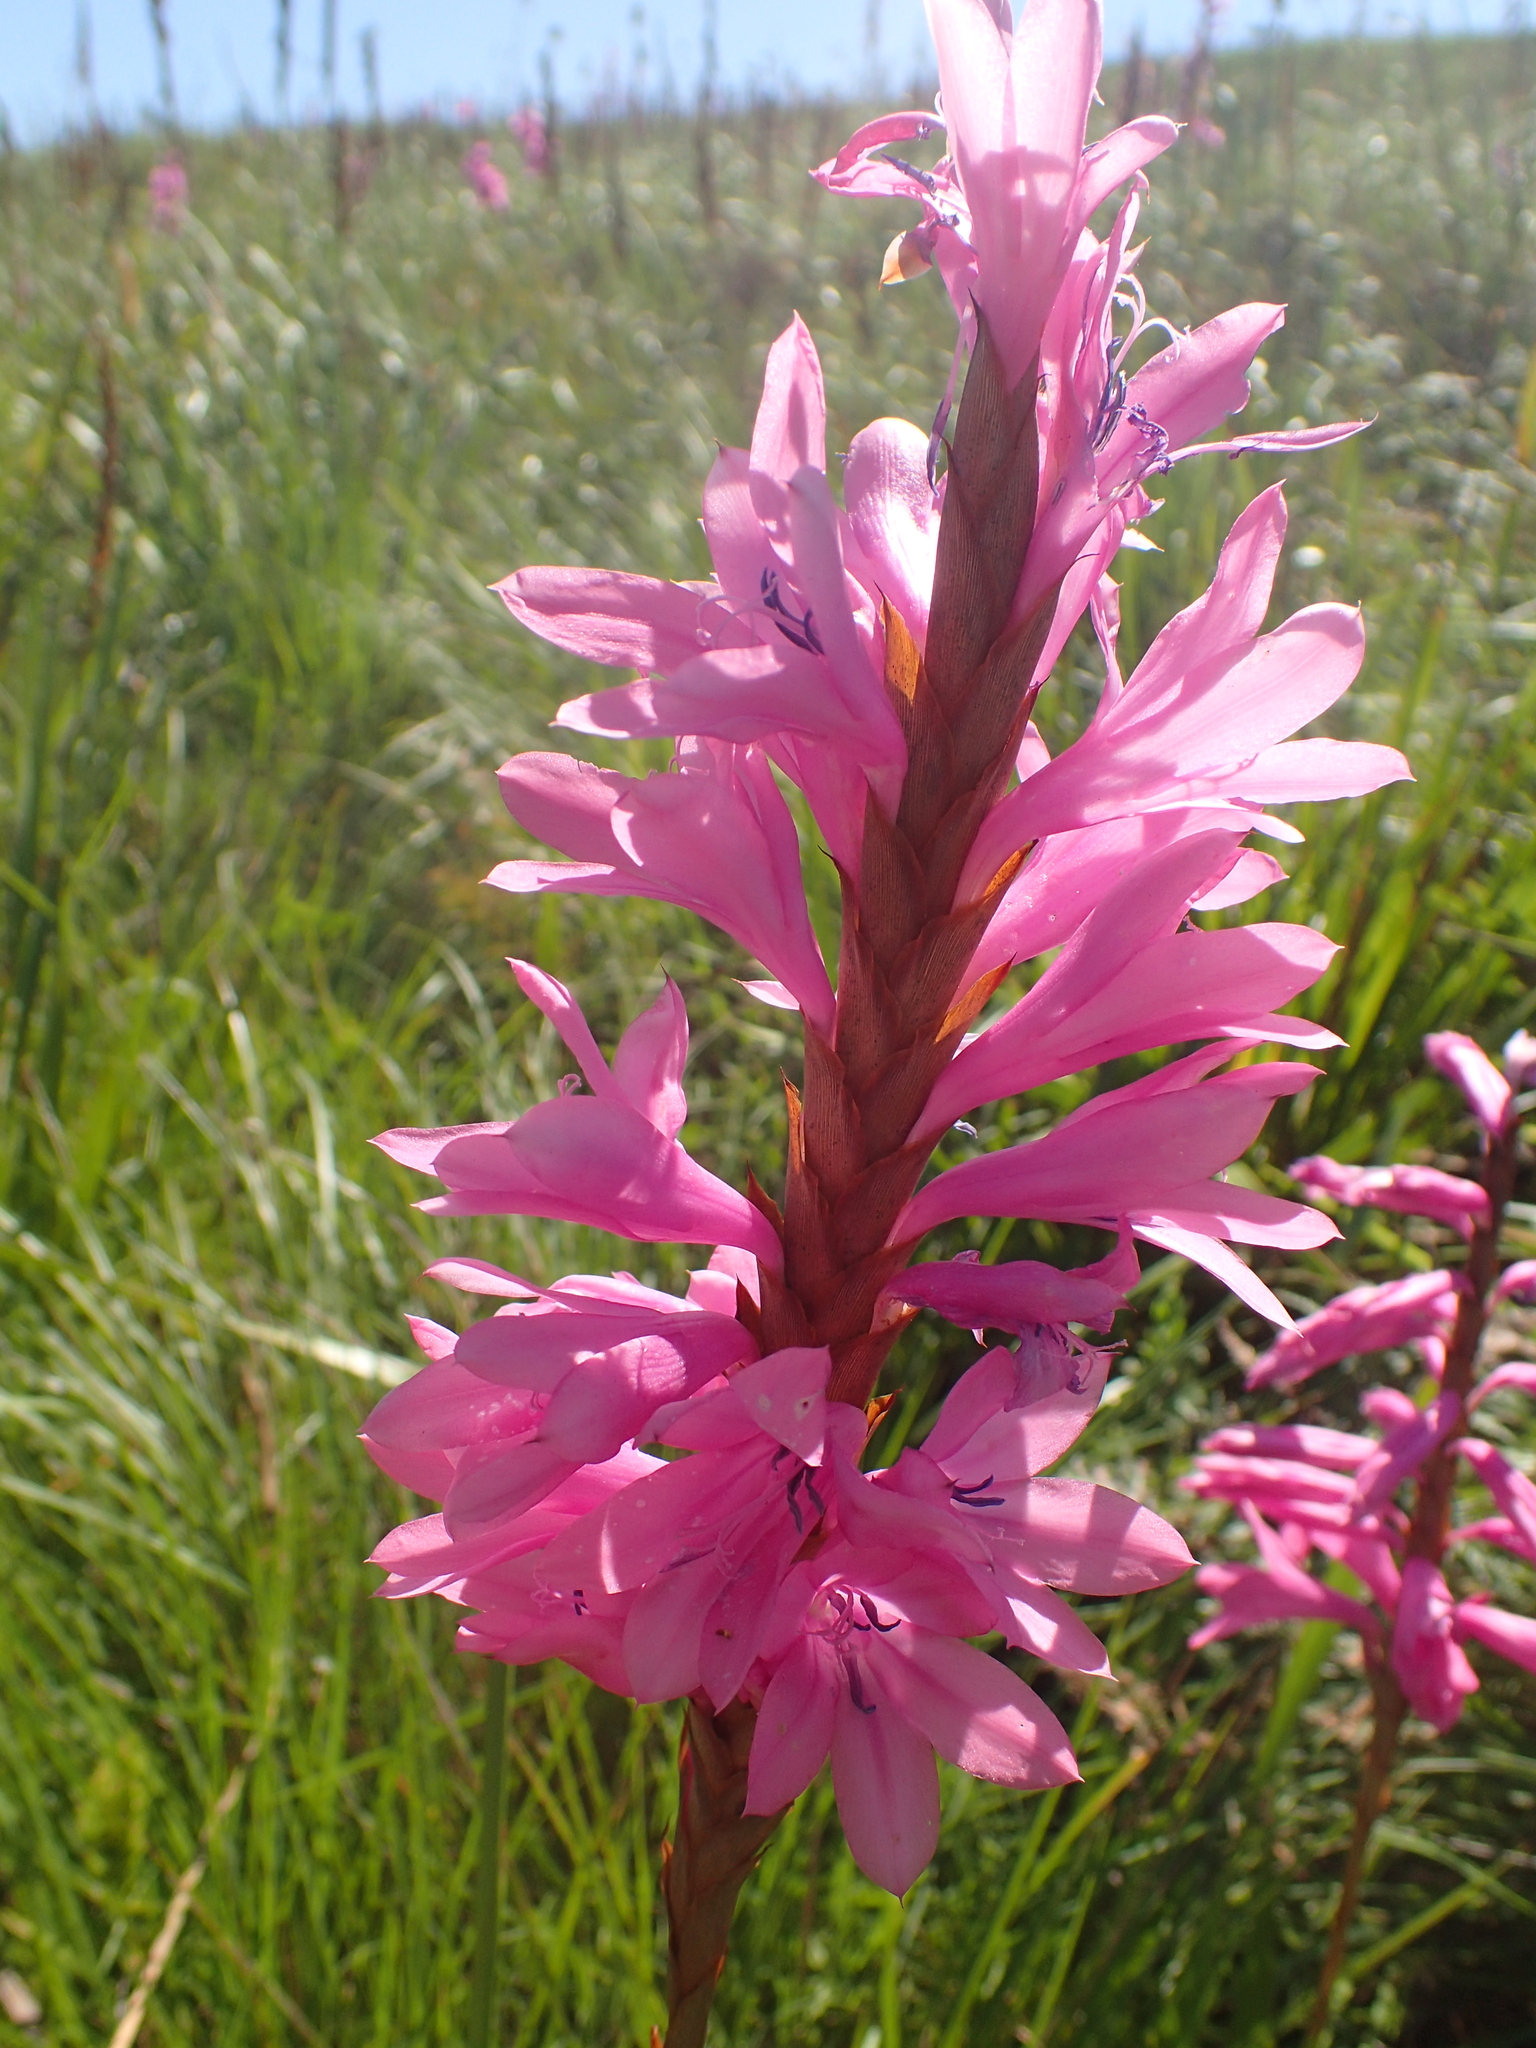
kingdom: Plantae
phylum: Tracheophyta
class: Liliopsida
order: Asparagales
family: Iridaceae
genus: Watsonia
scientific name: Watsonia densiflora
